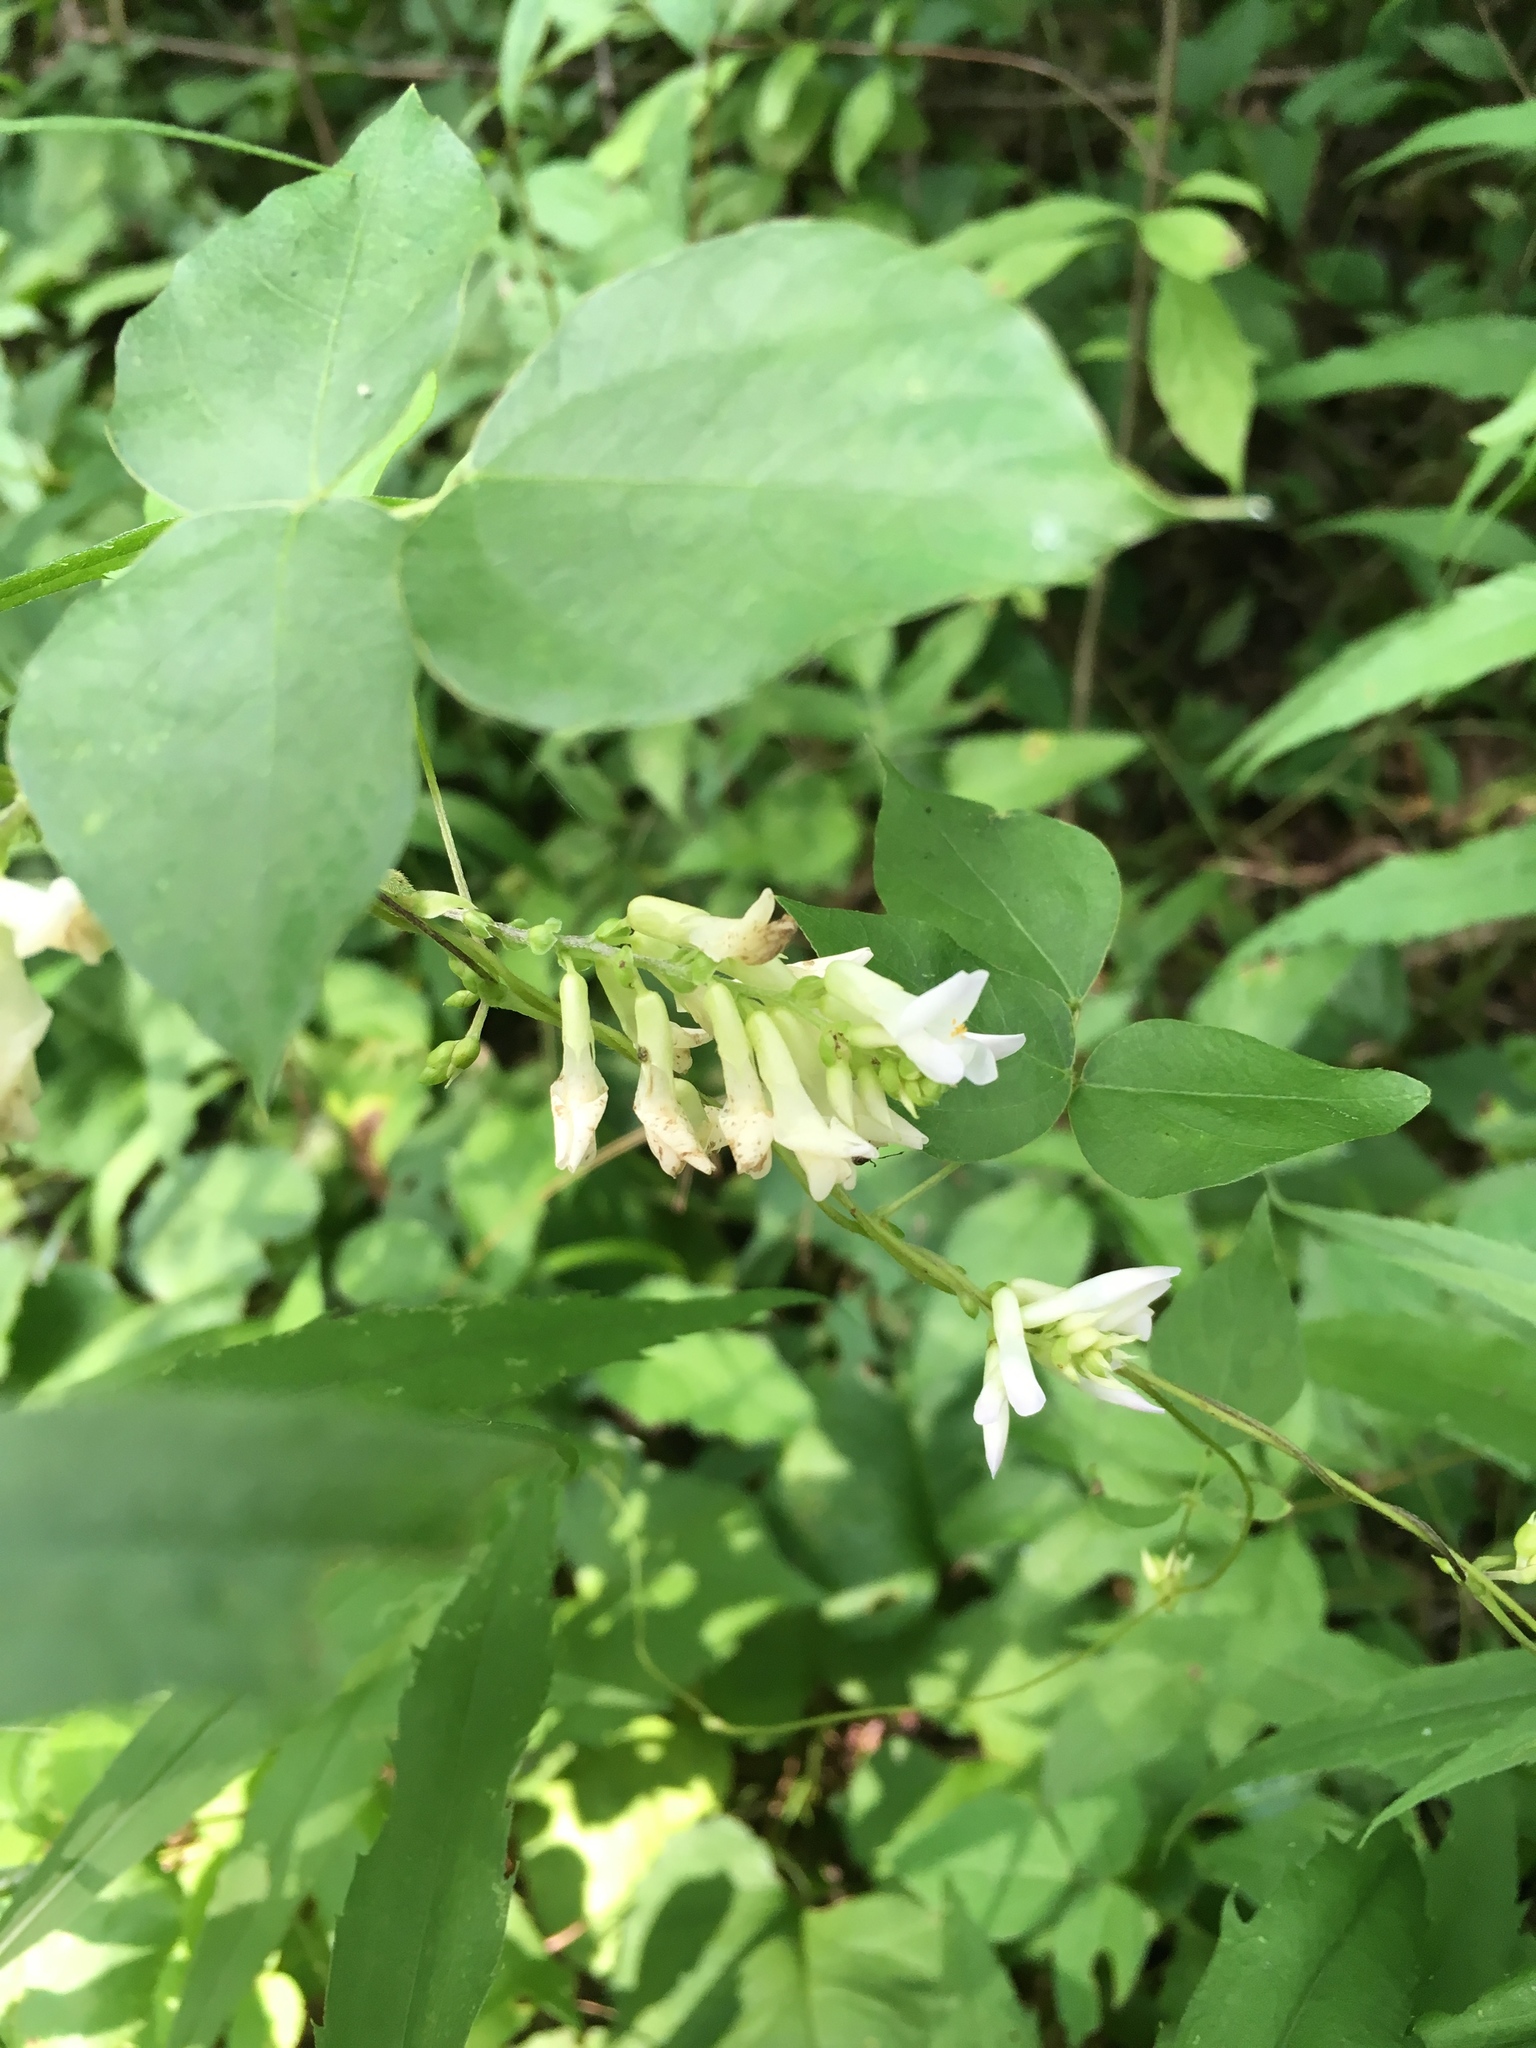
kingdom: Plantae
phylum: Tracheophyta
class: Magnoliopsida
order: Fabales
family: Fabaceae
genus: Amphicarpaea
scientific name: Amphicarpaea bracteata
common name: American hog peanut
